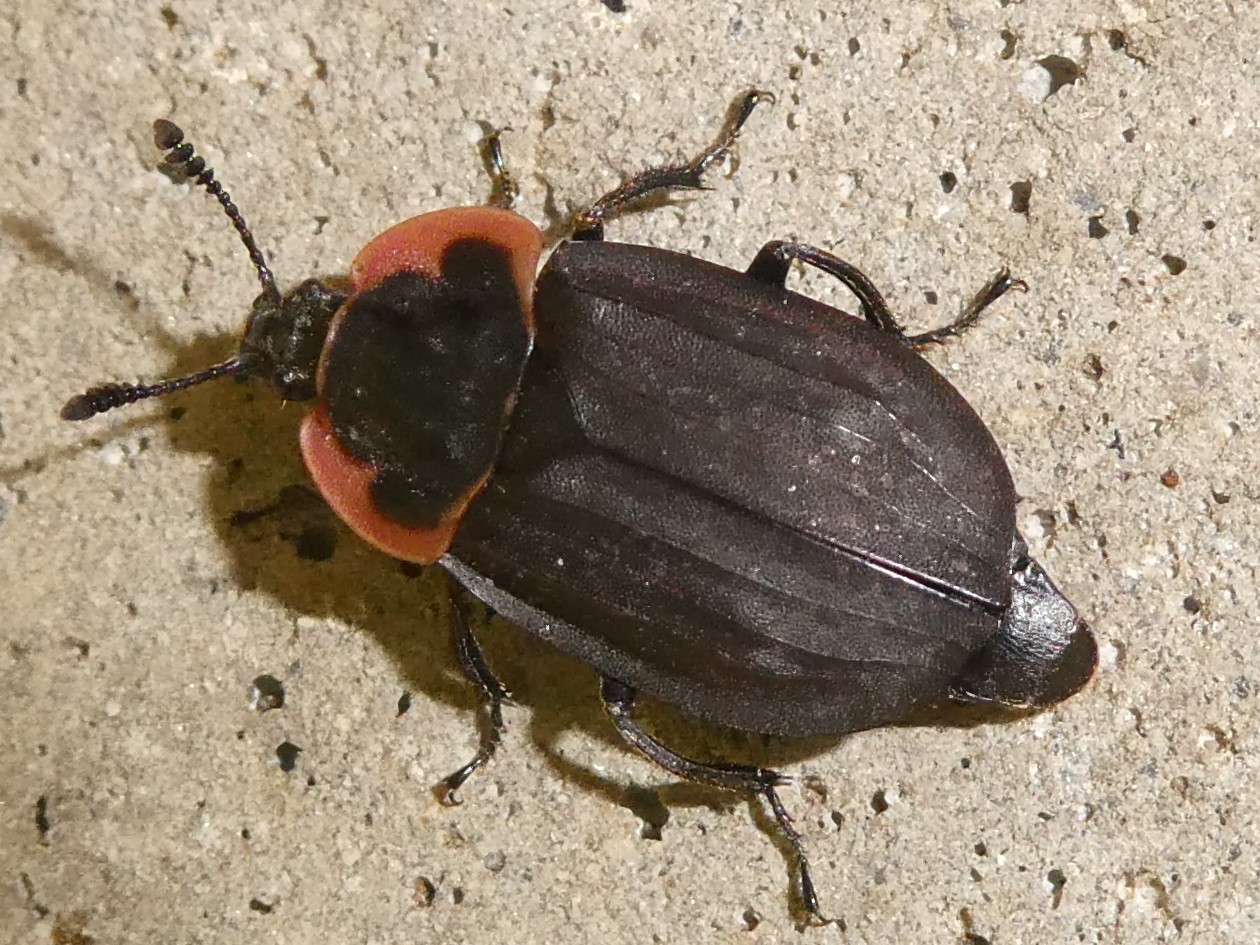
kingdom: Animalia
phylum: Arthropoda
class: Insecta
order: Coleoptera
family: Staphylinidae
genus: Oiceoptoma
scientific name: Oiceoptoma noveboracense
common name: Margined carrion beetle
